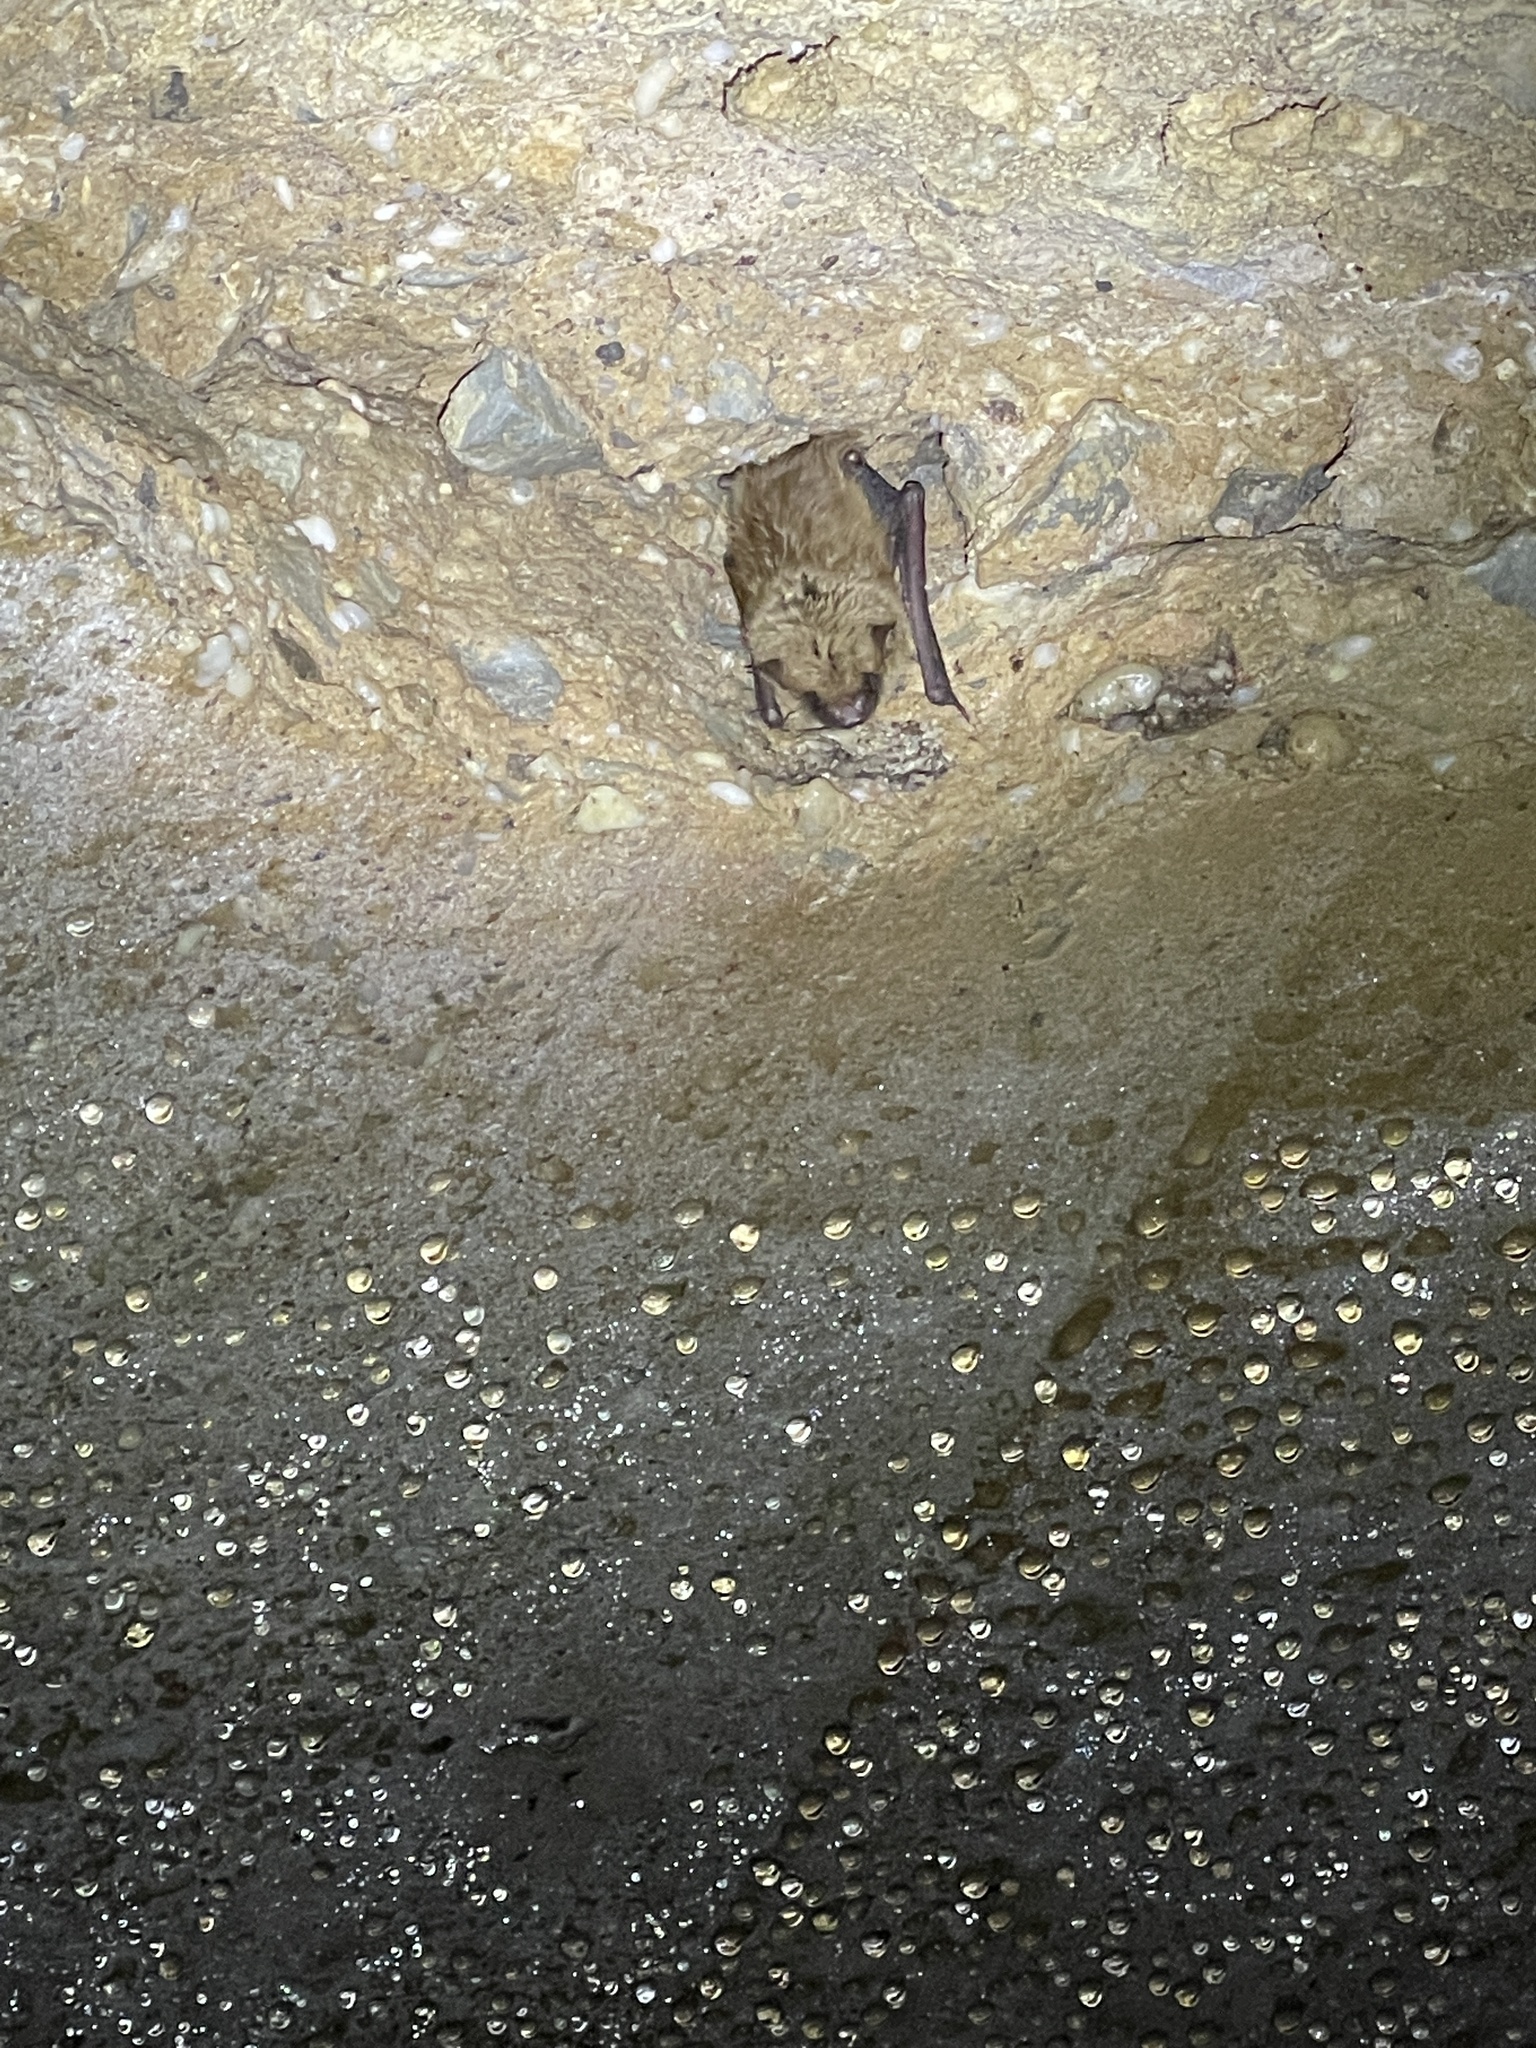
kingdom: Animalia
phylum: Chordata
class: Mammalia
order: Chiroptera
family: Vespertilionidae
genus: Eptesicus
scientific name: Eptesicus fuscus
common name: Big brown bat
